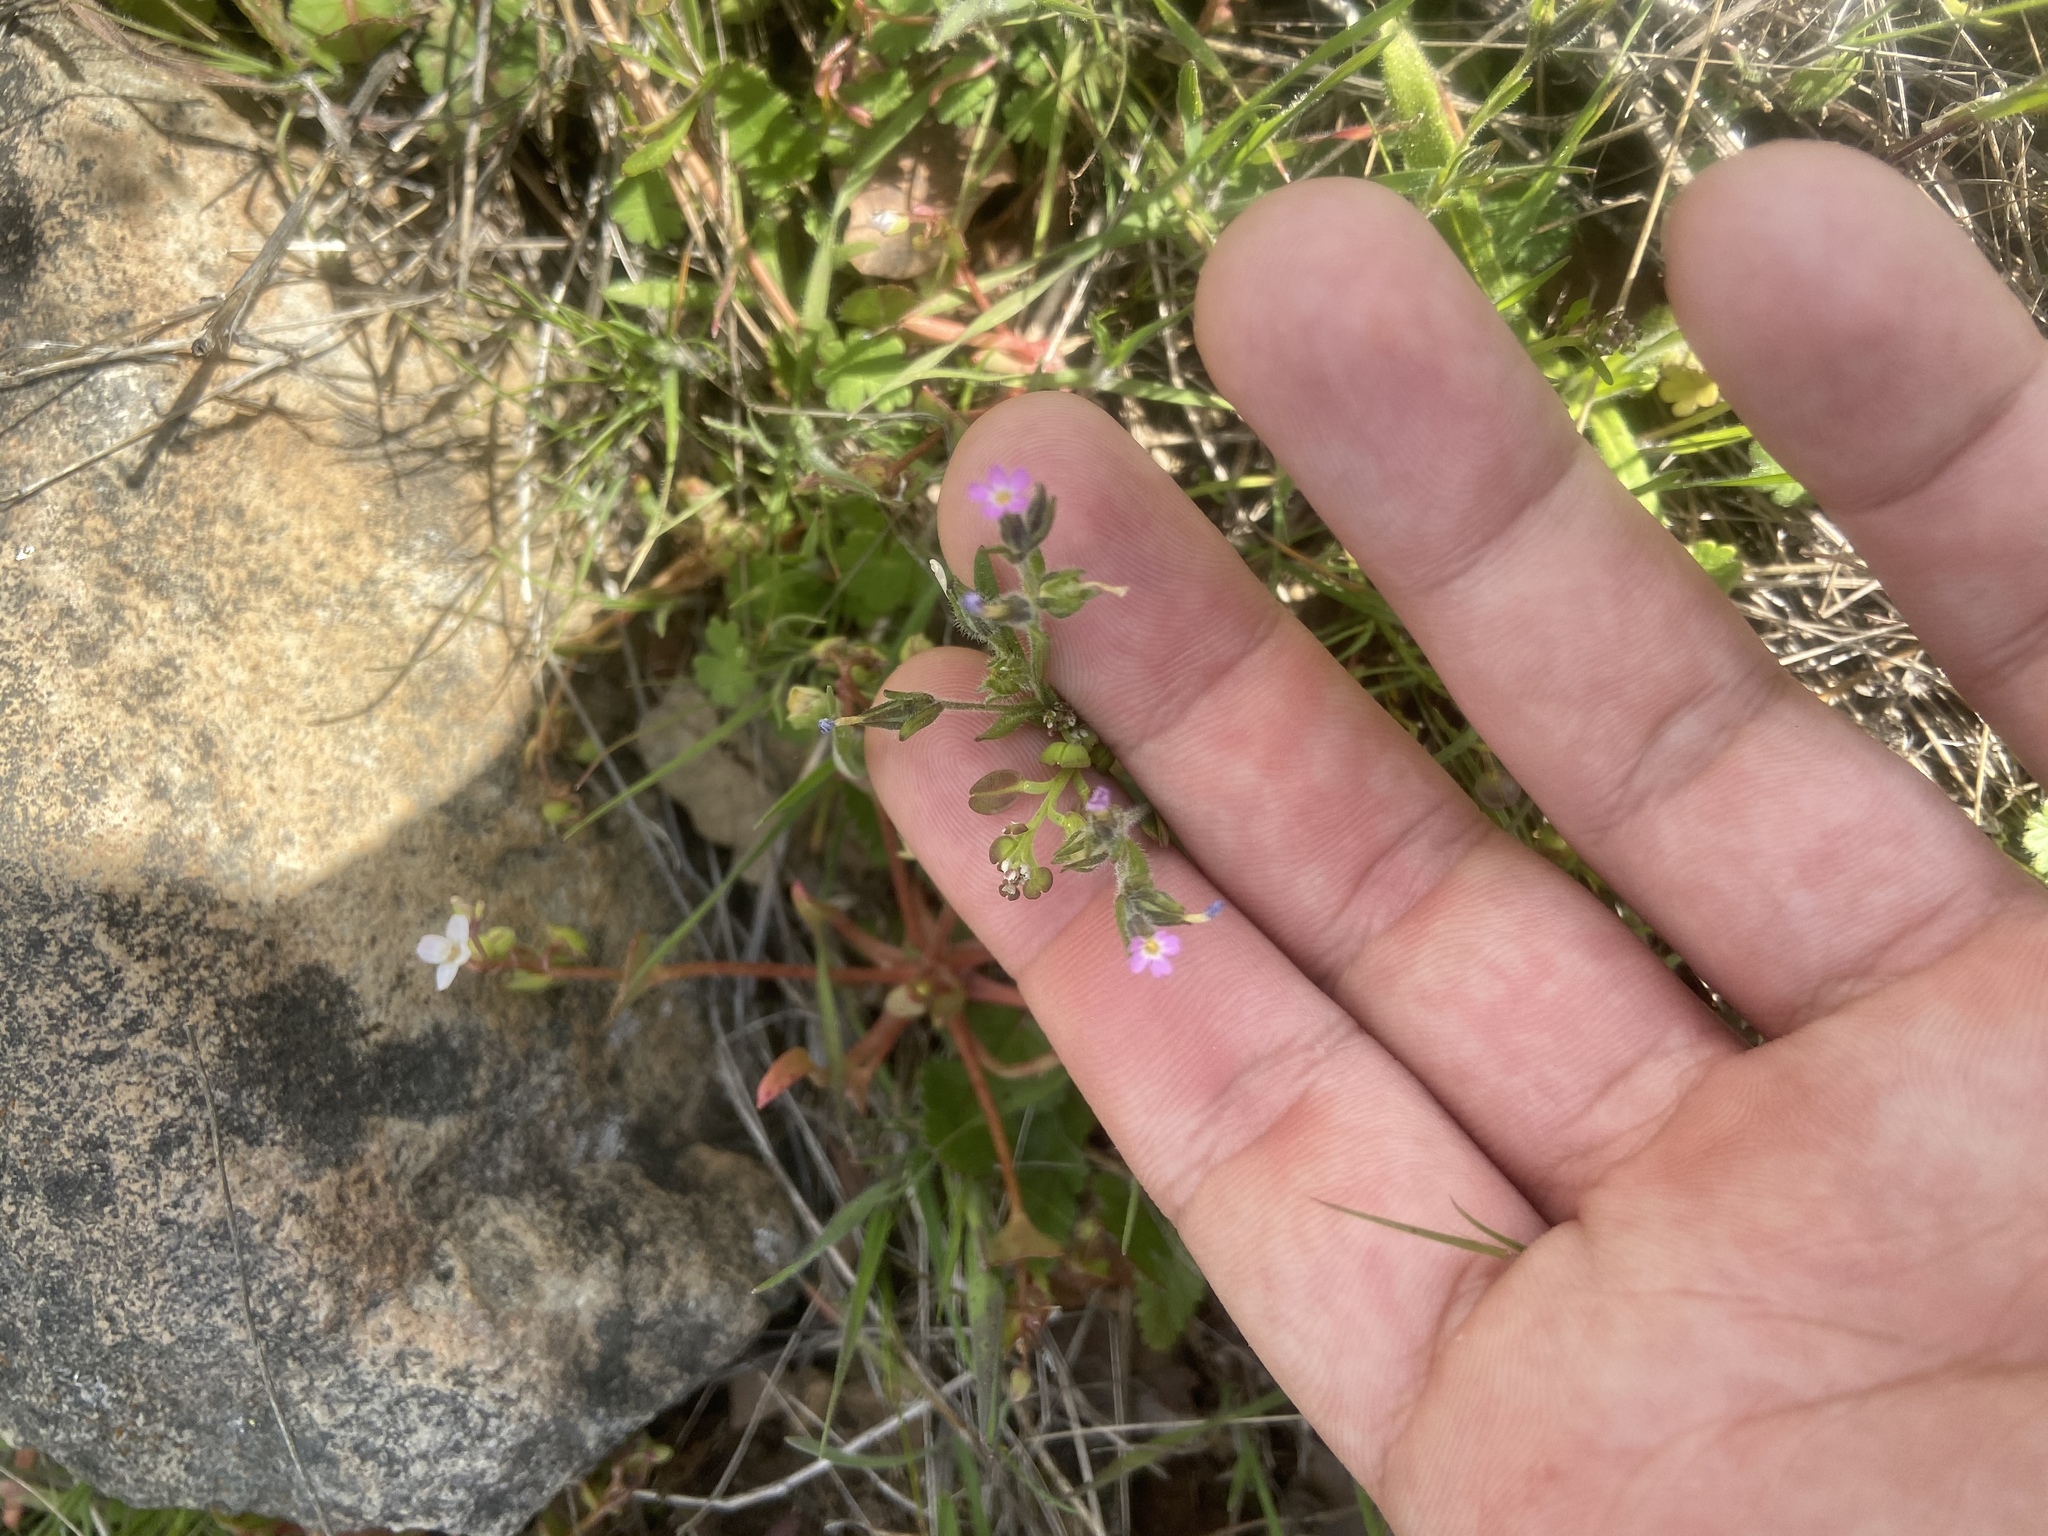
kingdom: Plantae
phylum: Tracheophyta
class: Magnoliopsida
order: Ericales
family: Polemoniaceae
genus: Phlox
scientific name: Phlox gracilis
